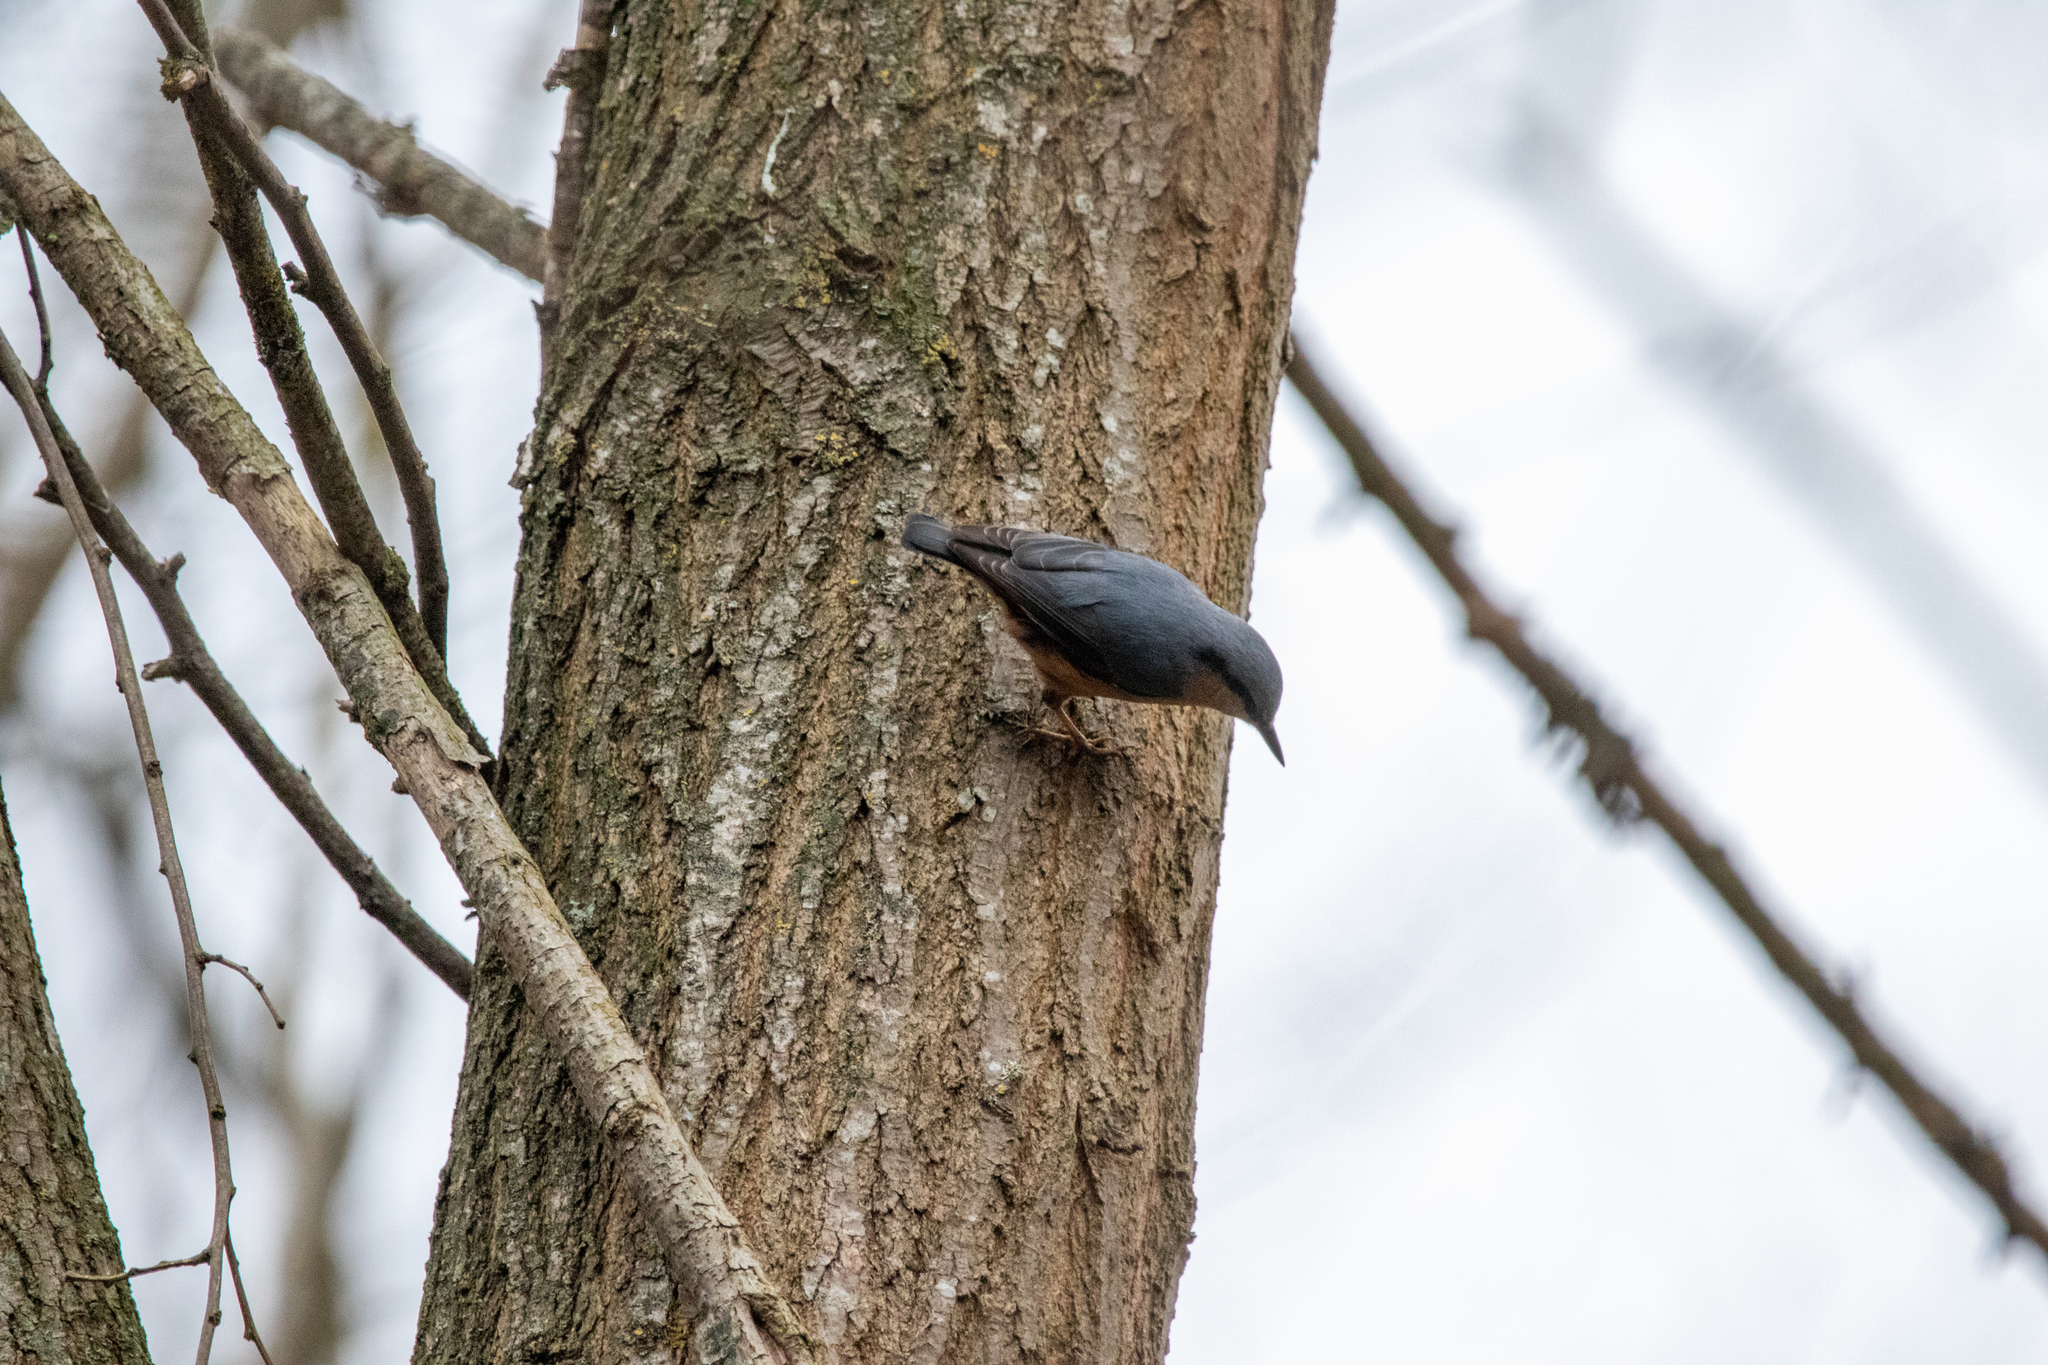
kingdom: Animalia
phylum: Chordata
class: Aves
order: Passeriformes
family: Sittidae
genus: Sitta
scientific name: Sitta europaea
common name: Eurasian nuthatch
